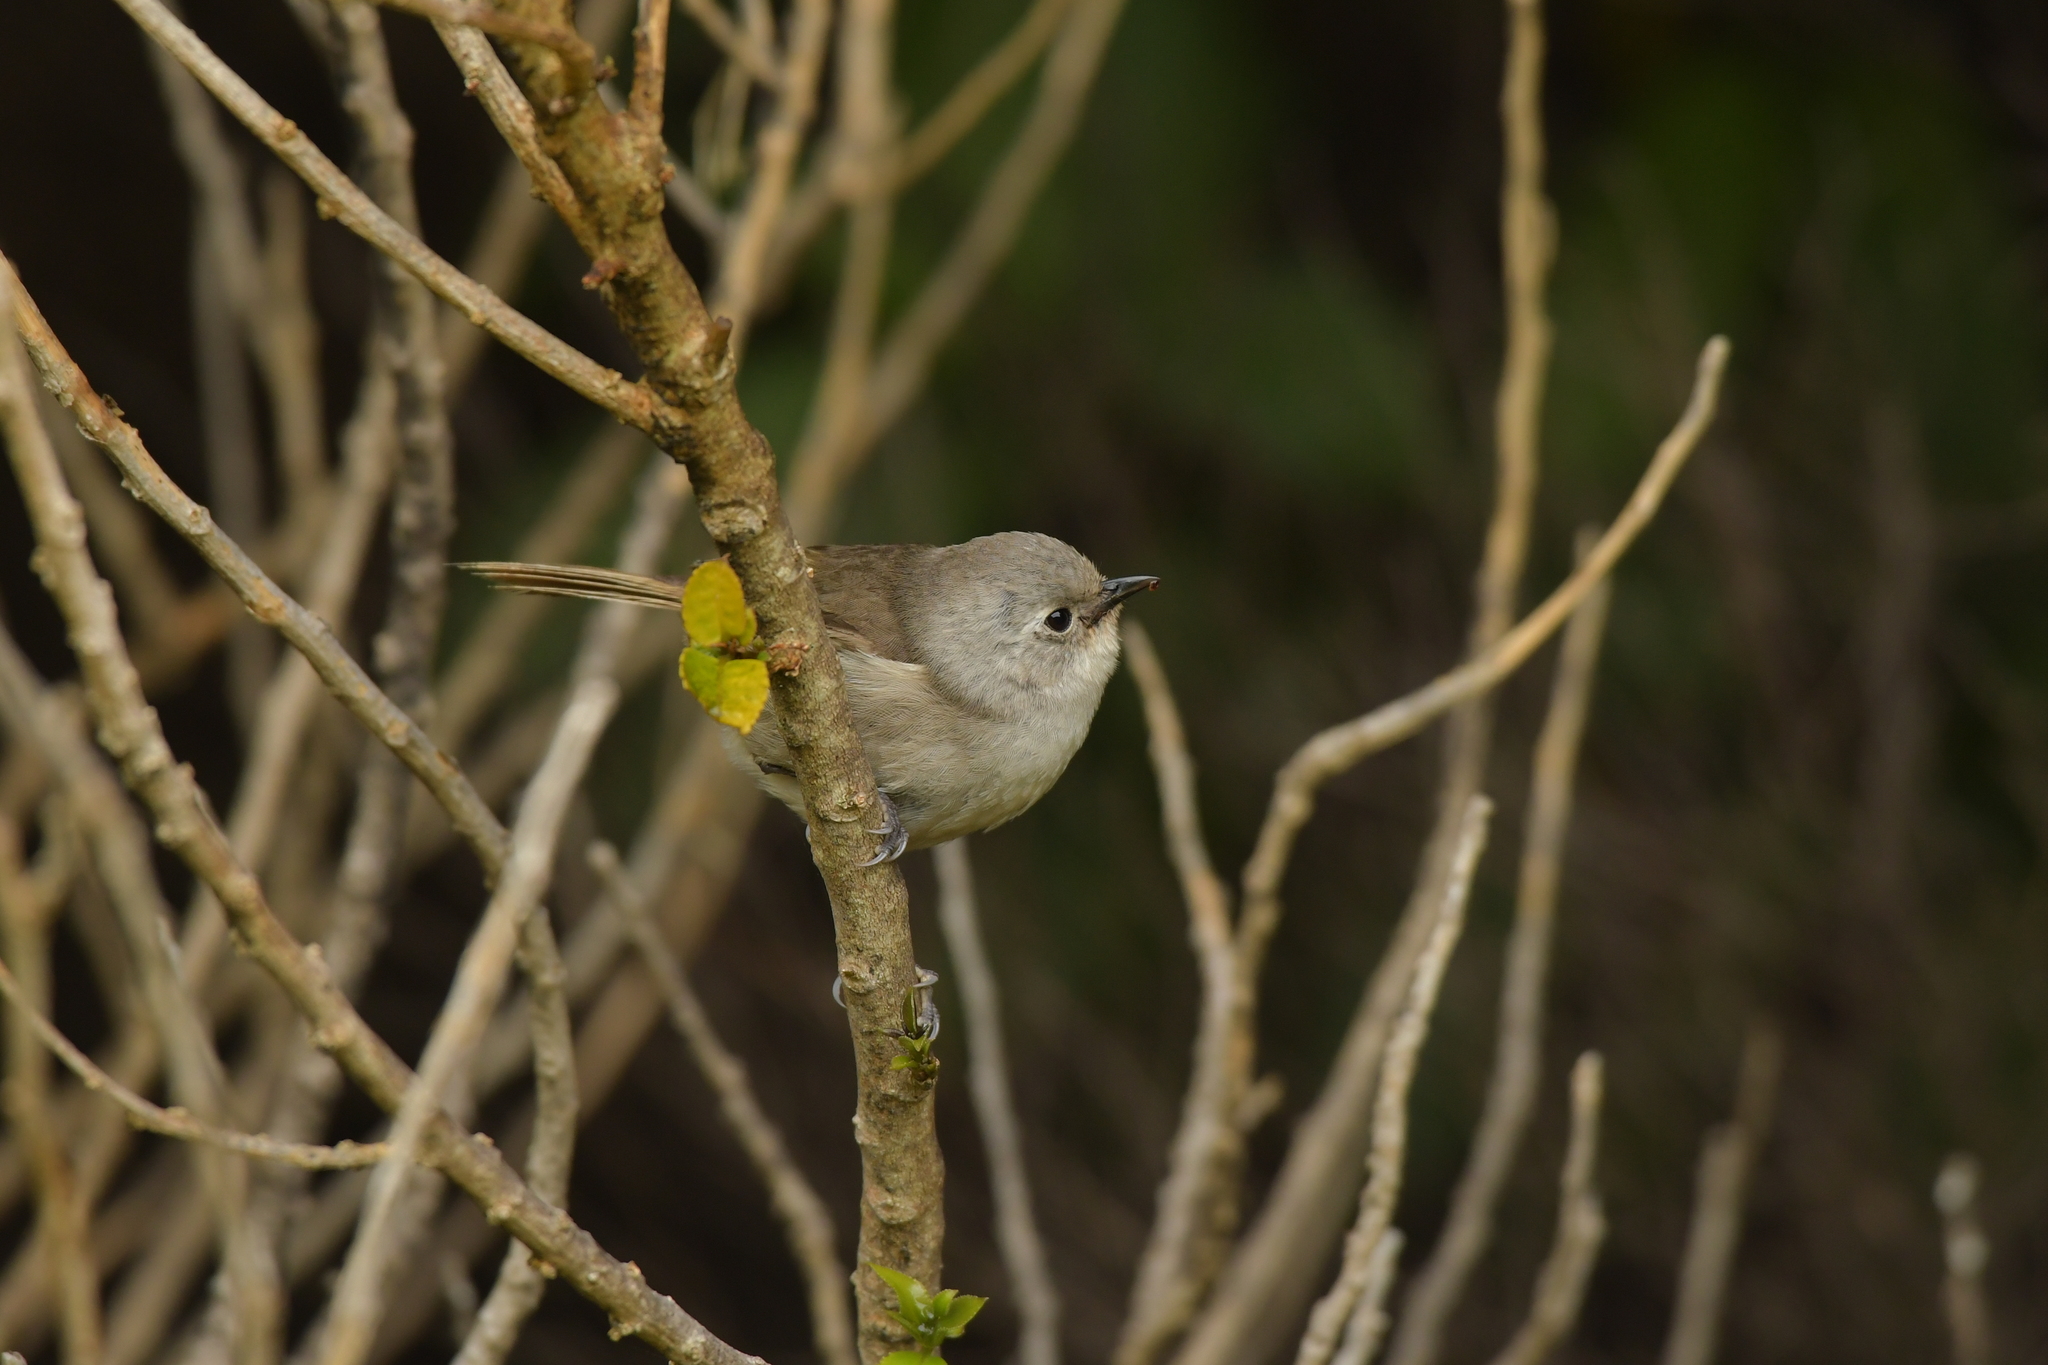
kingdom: Animalia
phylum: Chordata
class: Aves
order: Passeriformes
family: Acanthizidae
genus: Mohoua
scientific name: Mohoua albicilla
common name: Whitehead
